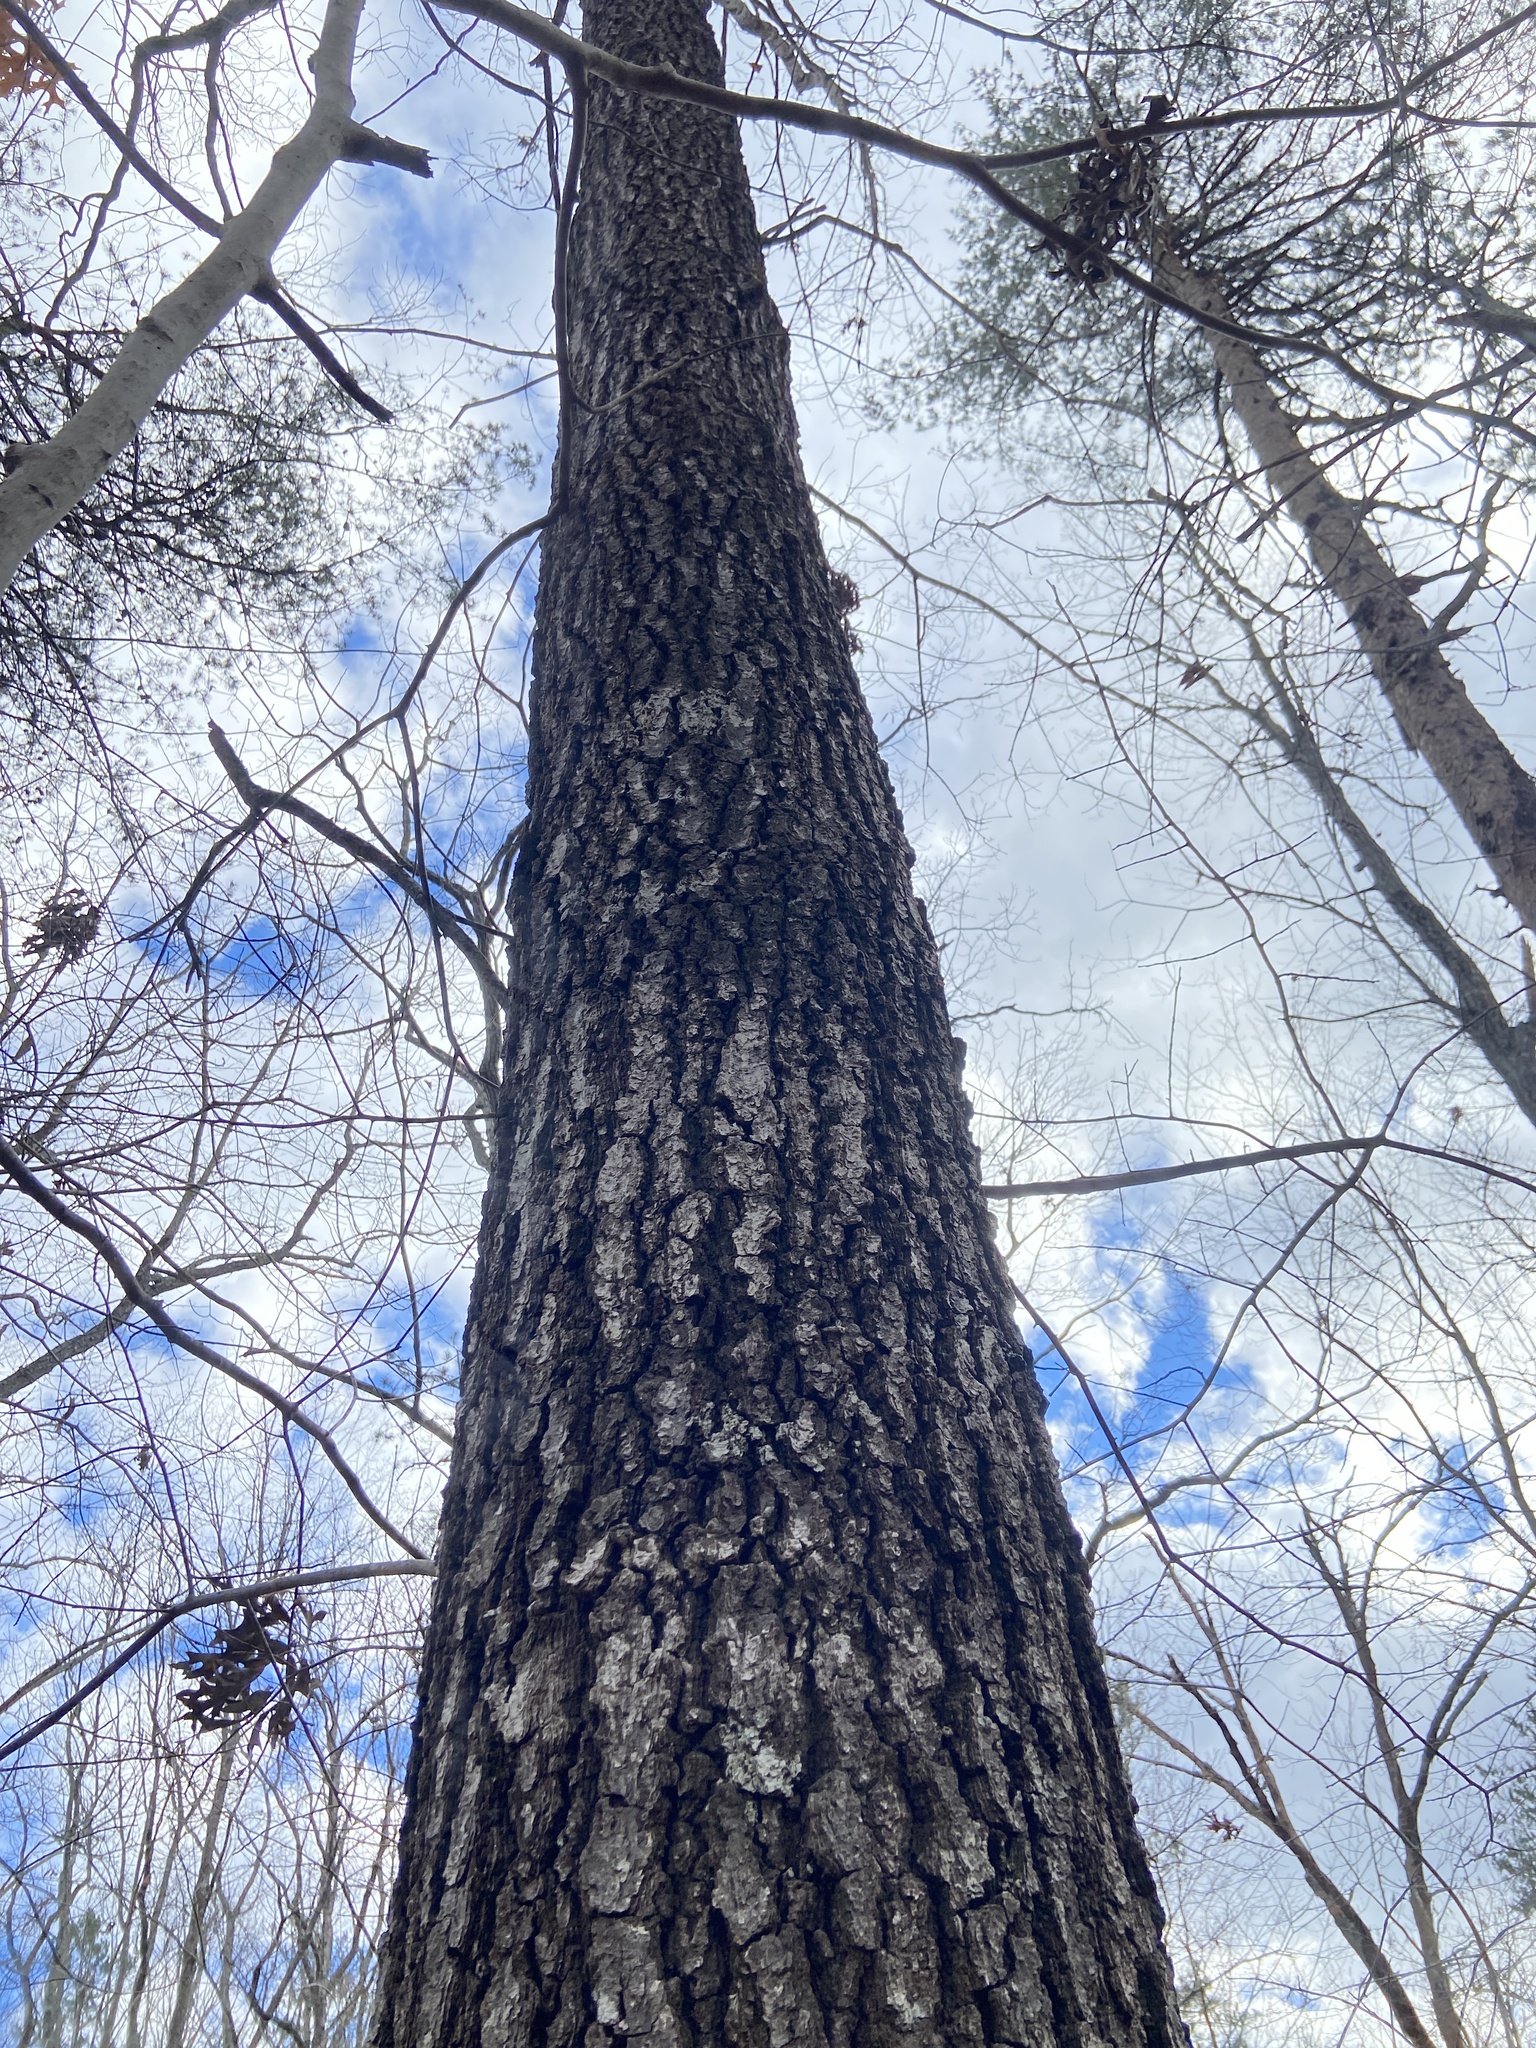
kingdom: Plantae
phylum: Tracheophyta
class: Magnoliopsida
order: Fagales
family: Fagaceae
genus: Quercus
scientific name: Quercus falcata
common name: Southern red oak
